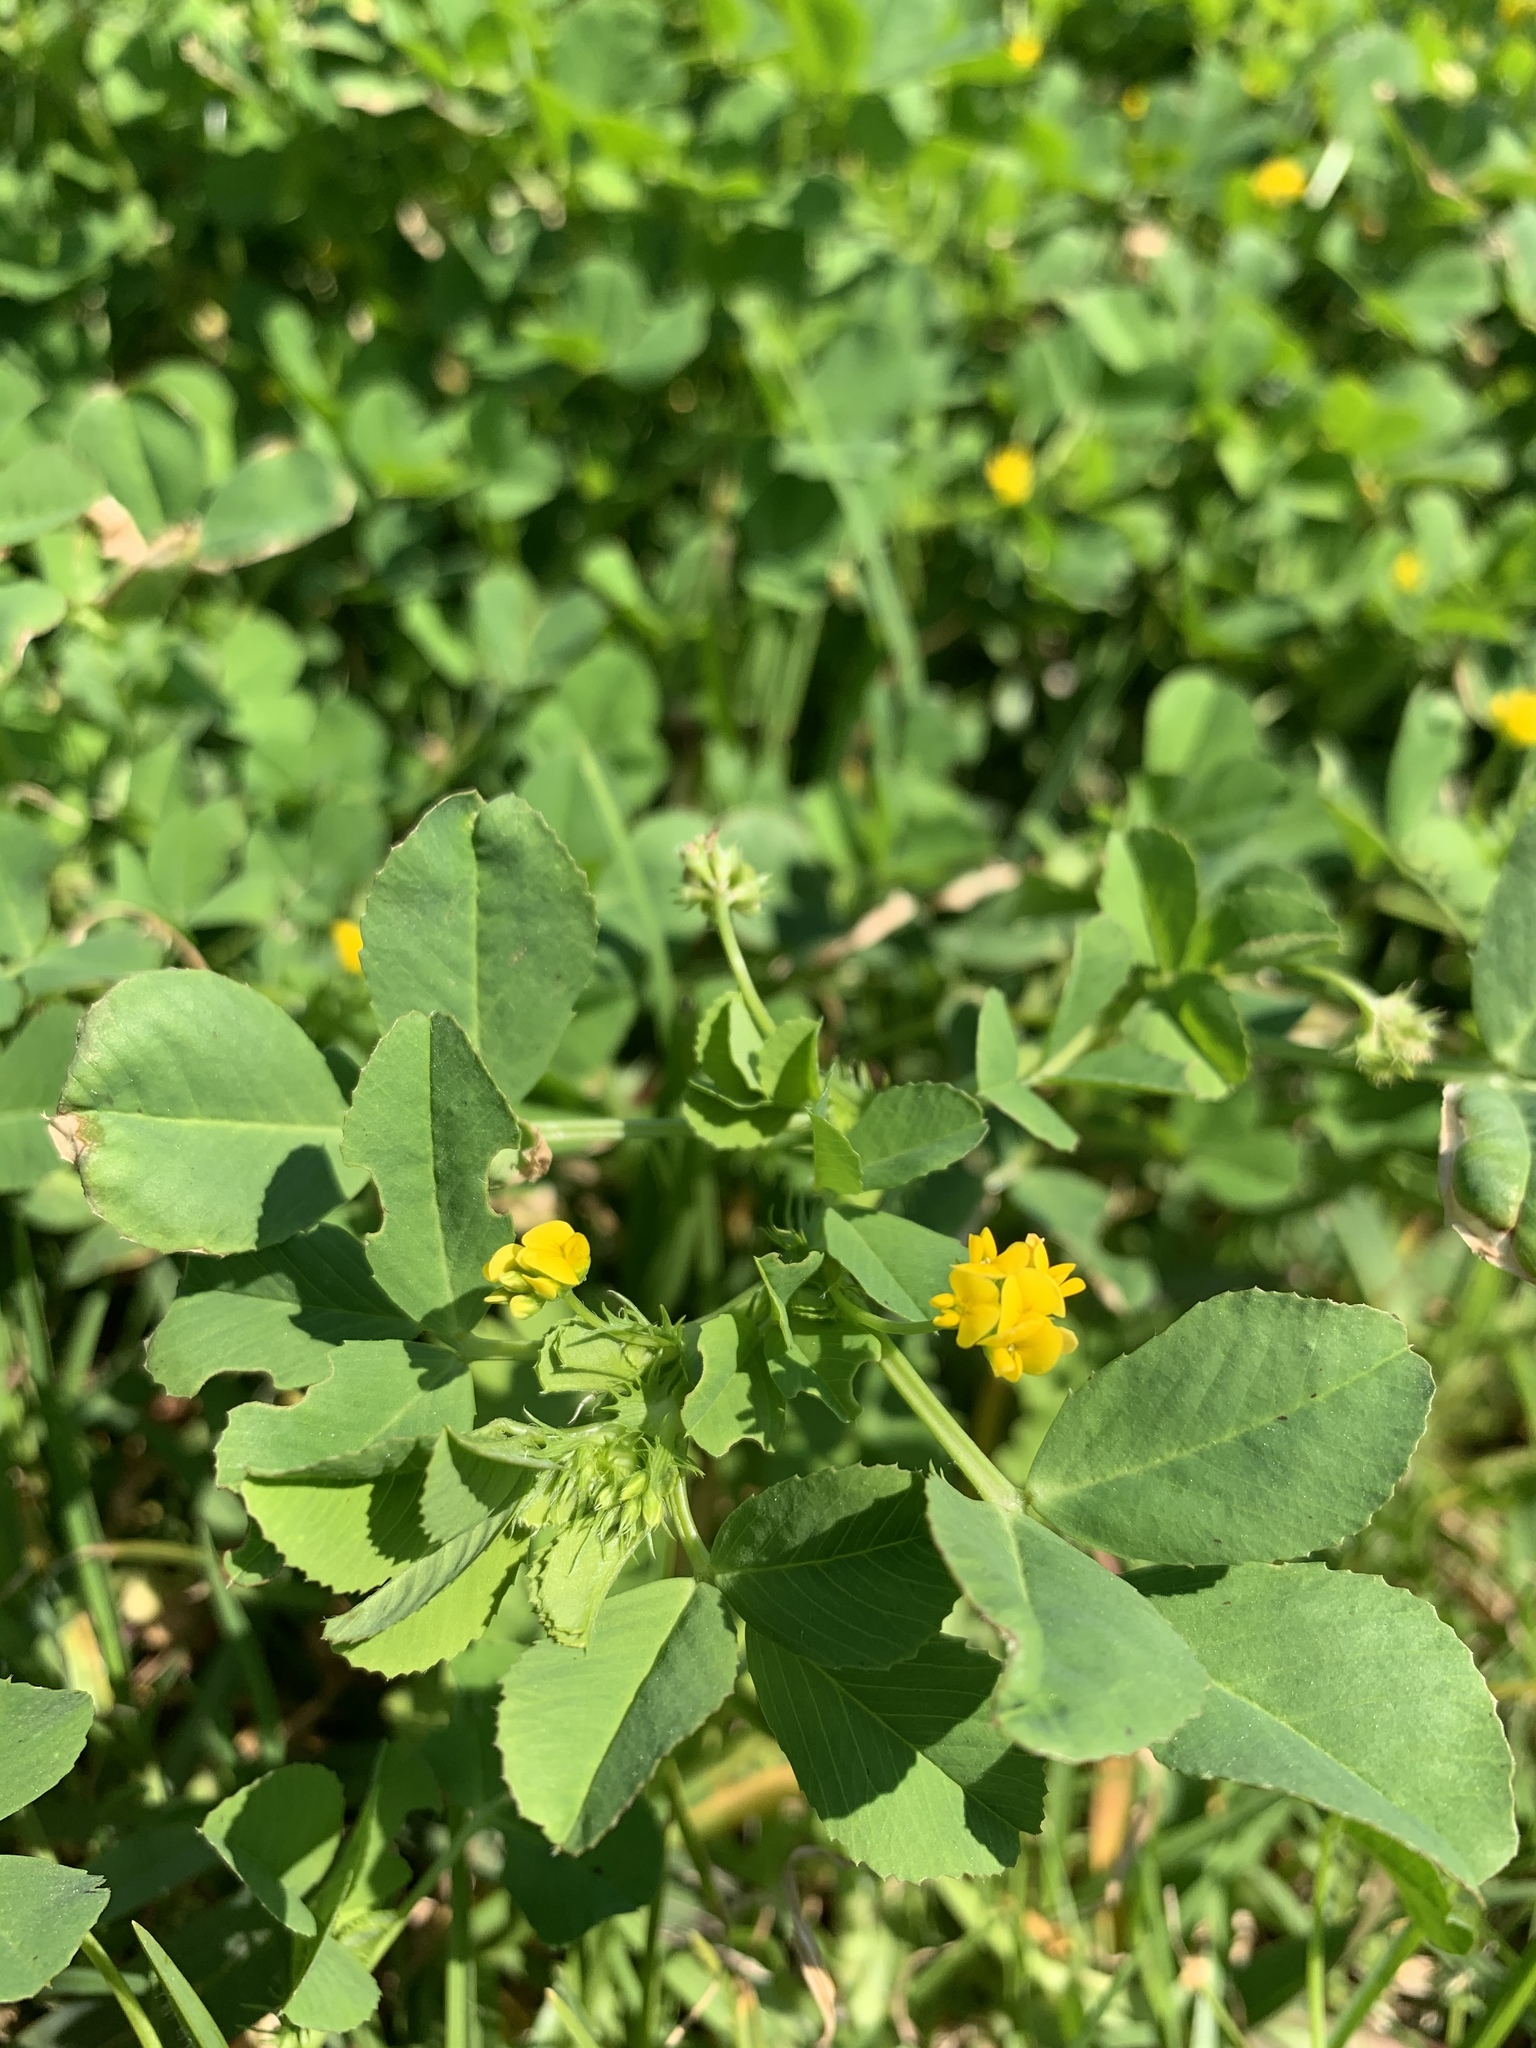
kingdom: Plantae
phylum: Tracheophyta
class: Magnoliopsida
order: Fabales
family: Fabaceae
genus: Medicago
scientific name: Medicago polymorpha
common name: Burclover
